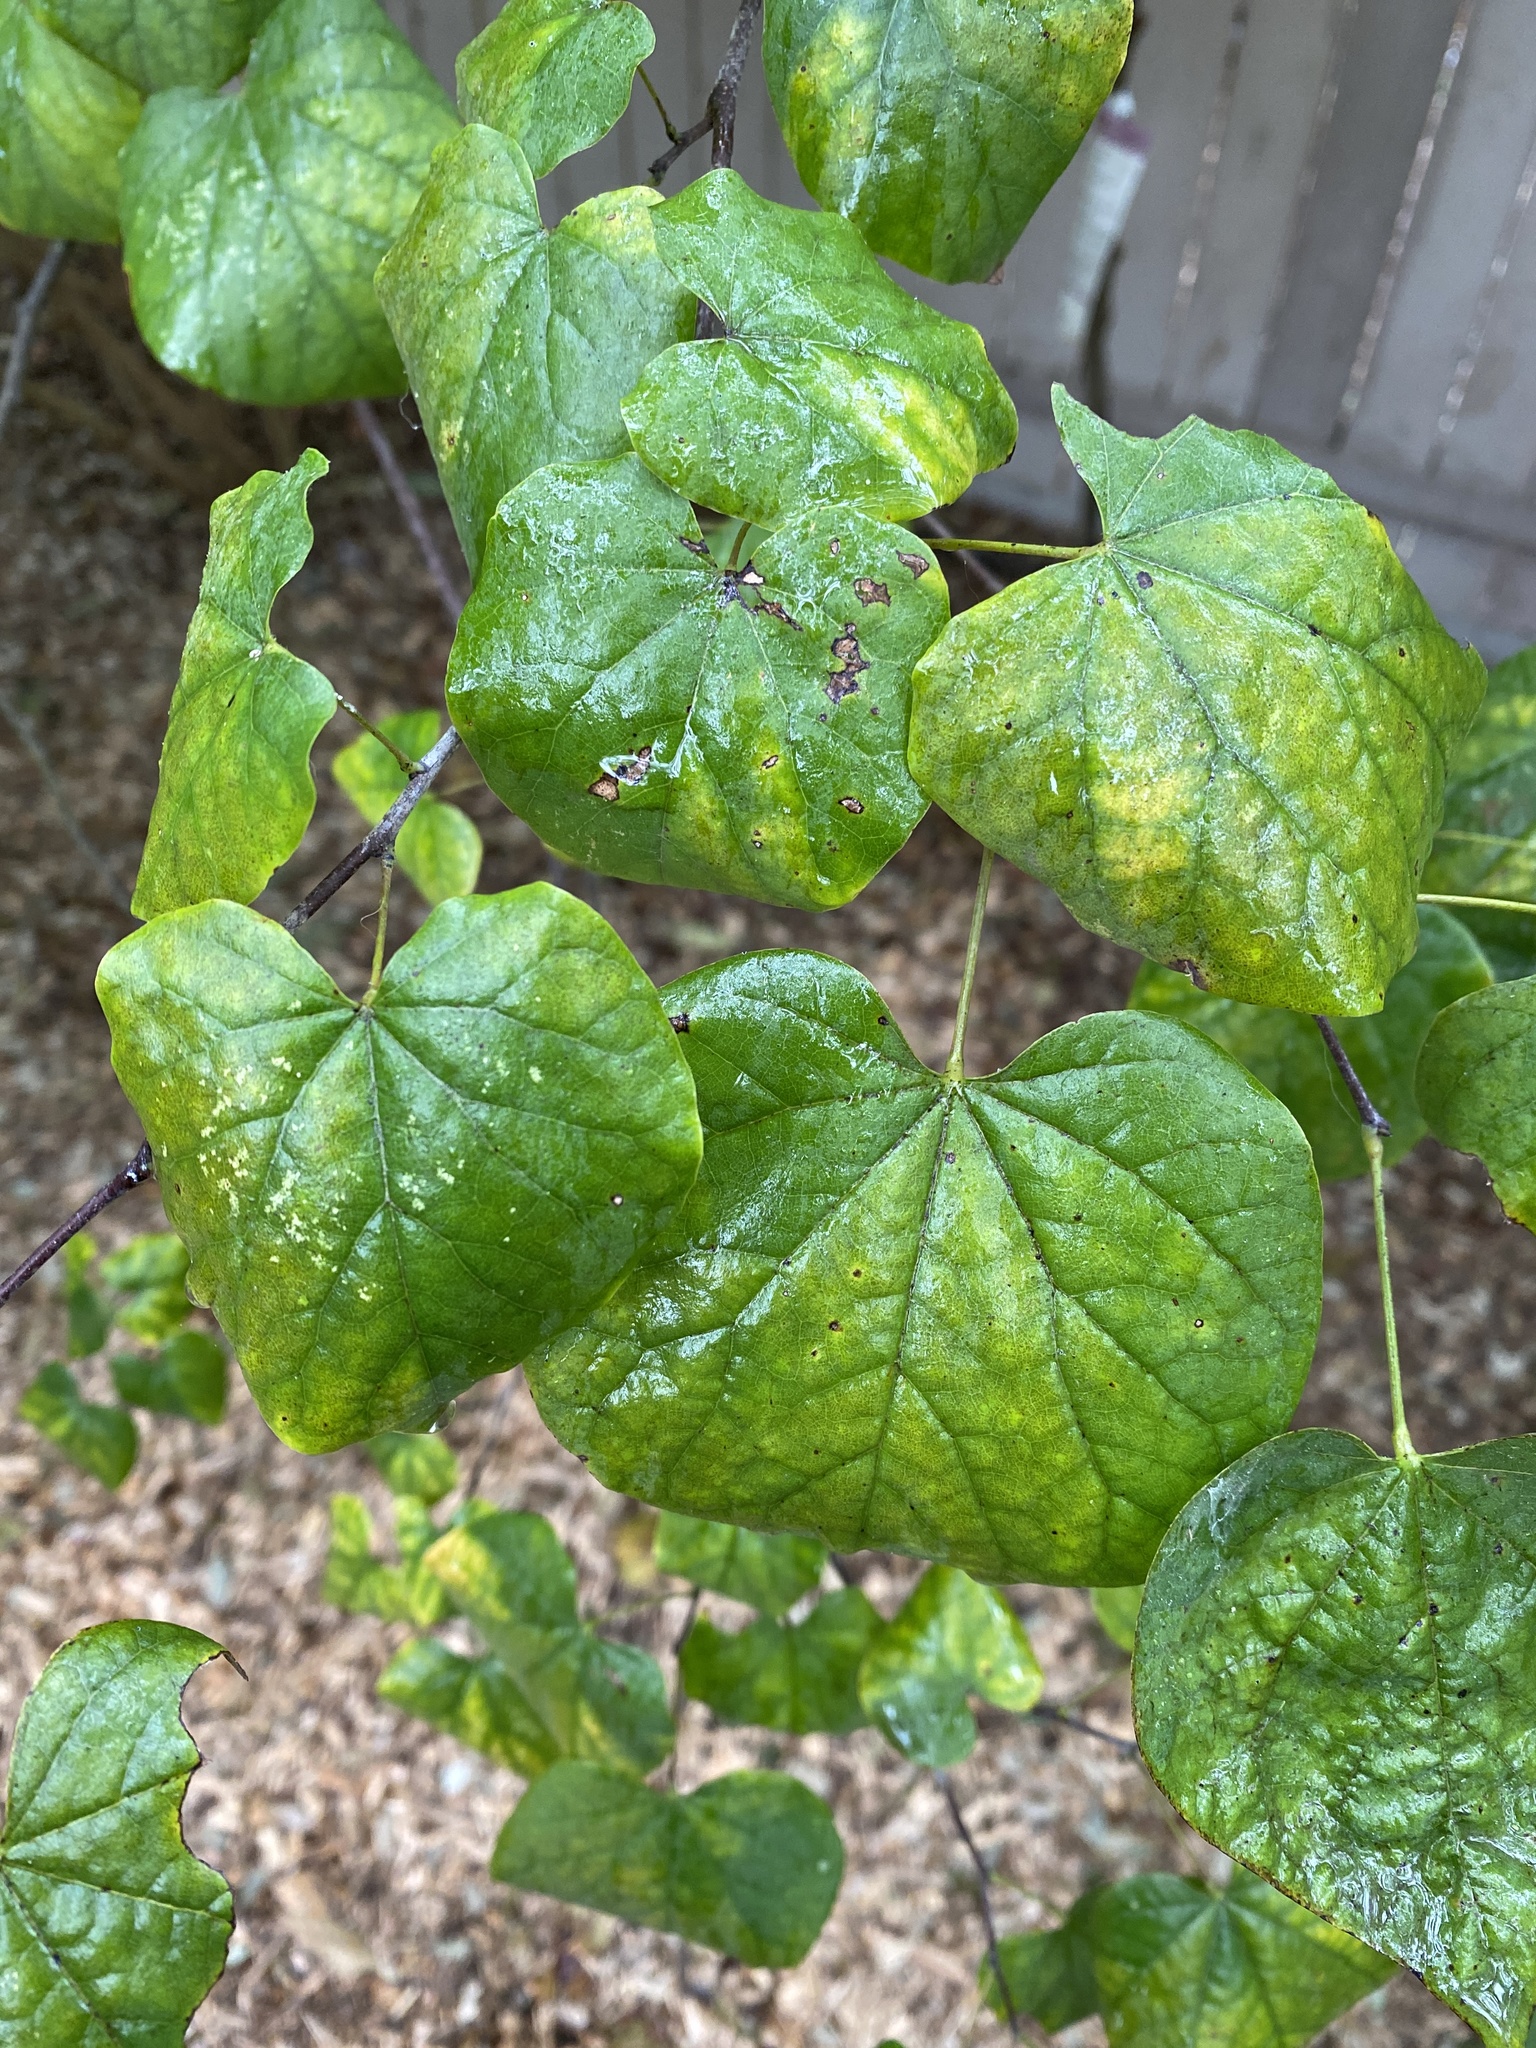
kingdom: Plantae
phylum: Tracheophyta
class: Magnoliopsida
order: Fabales
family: Fabaceae
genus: Cercis
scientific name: Cercis canadensis
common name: Eastern redbud
